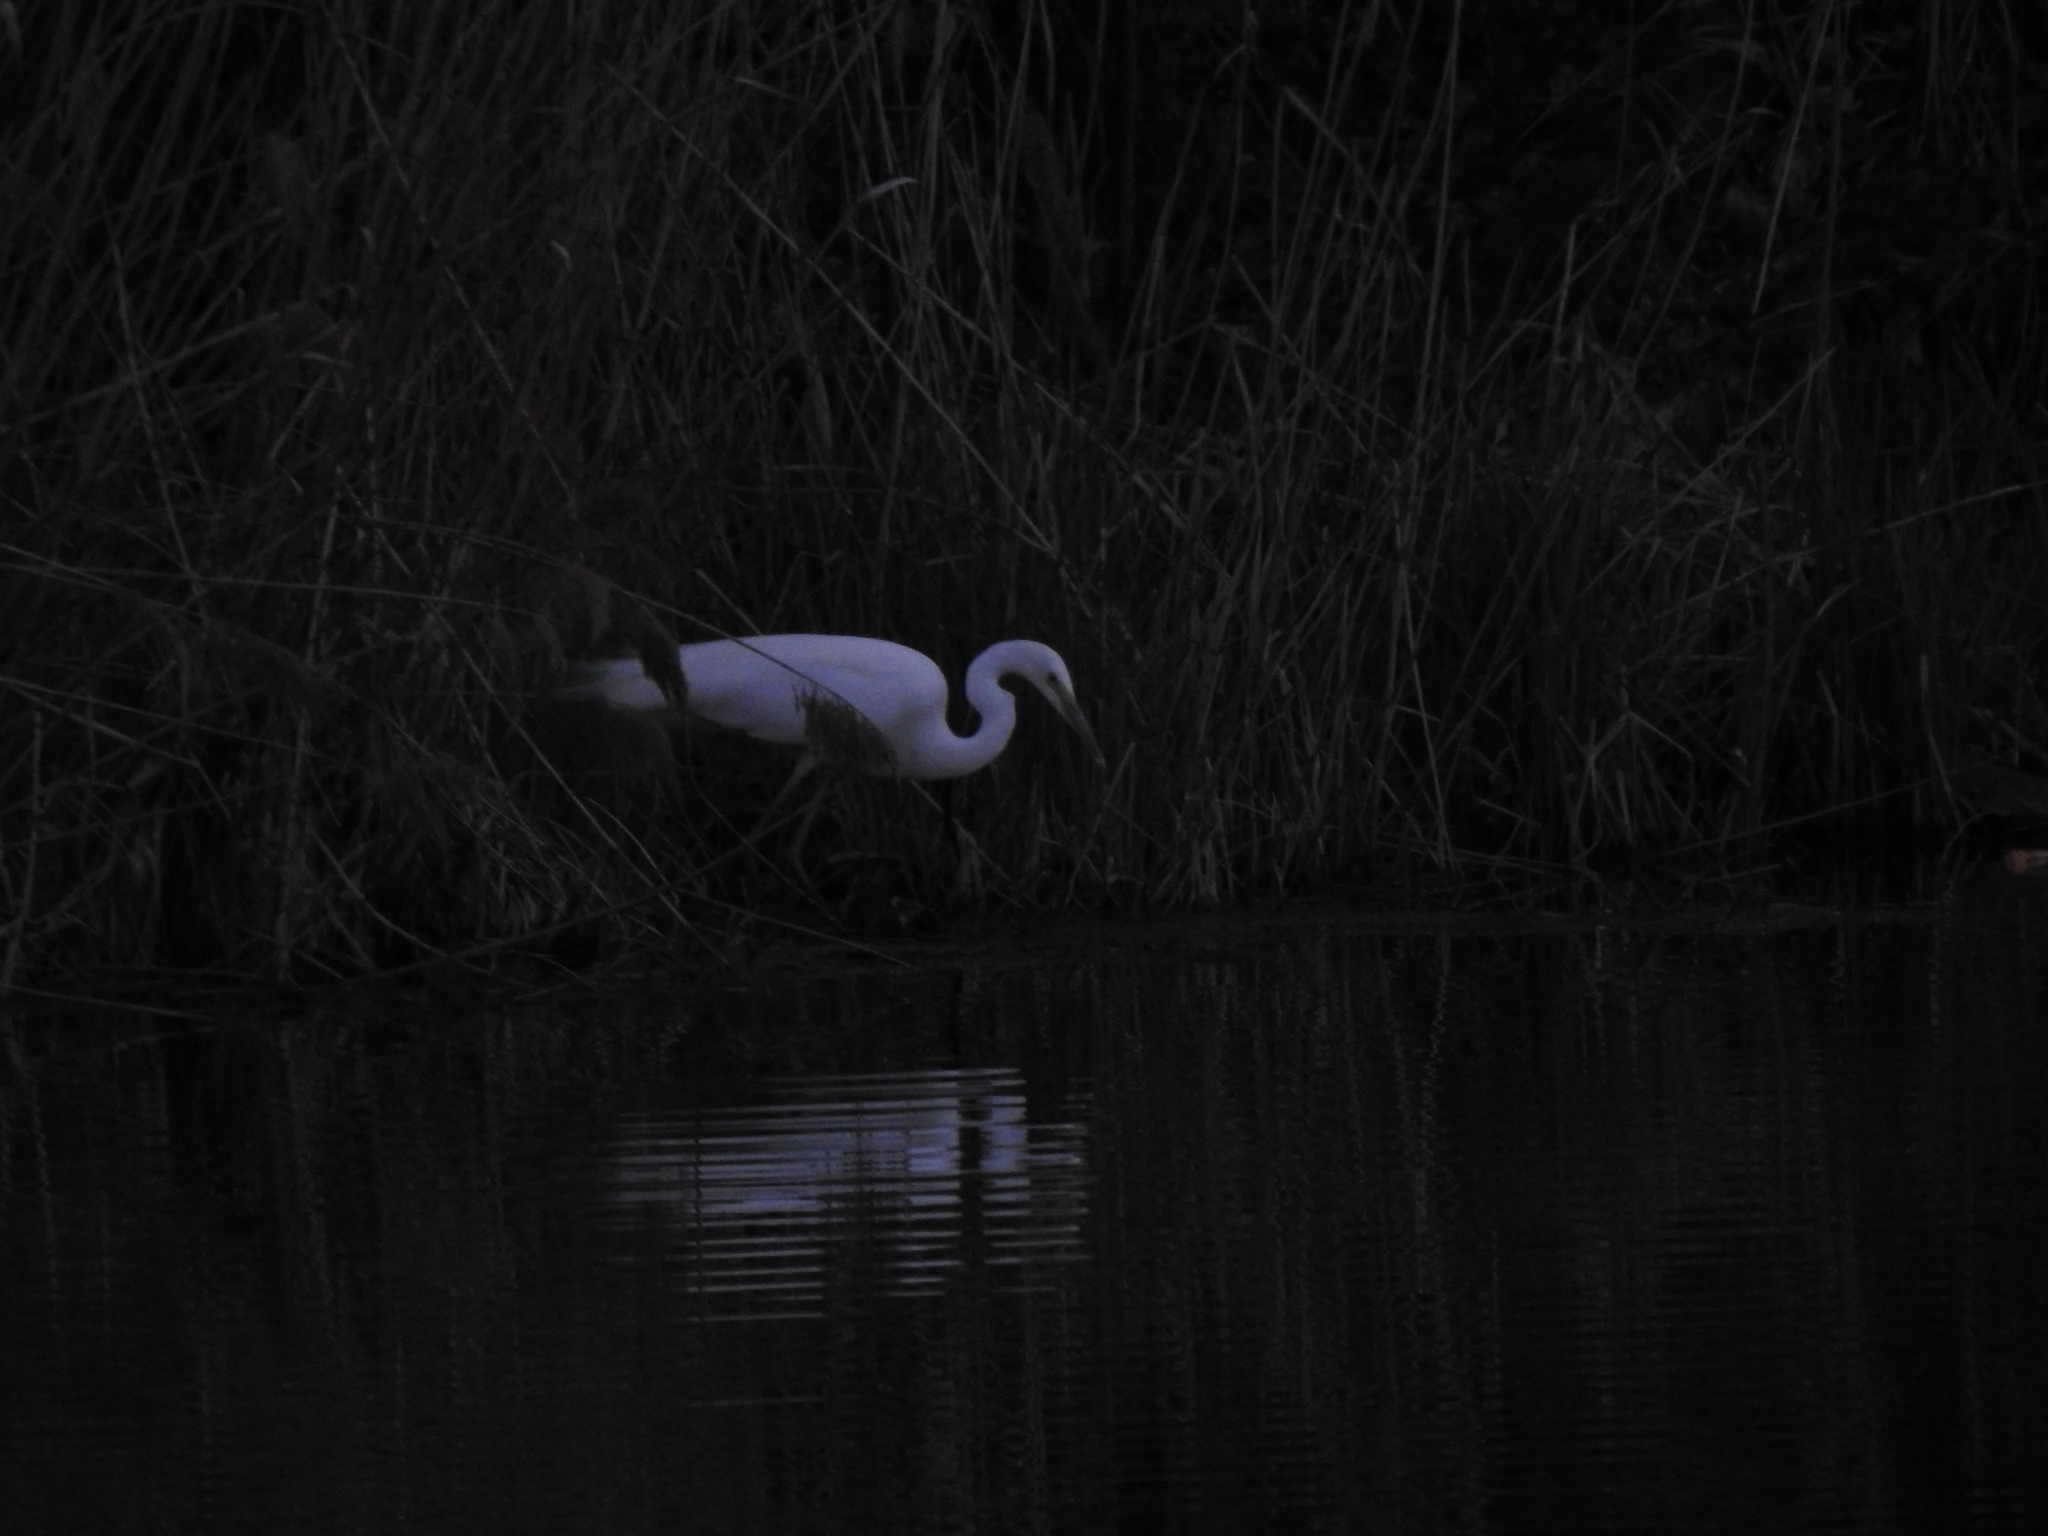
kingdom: Animalia
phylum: Chordata
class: Aves
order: Pelecaniformes
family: Ardeidae
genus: Ardea
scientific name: Ardea alba
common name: Great egret
